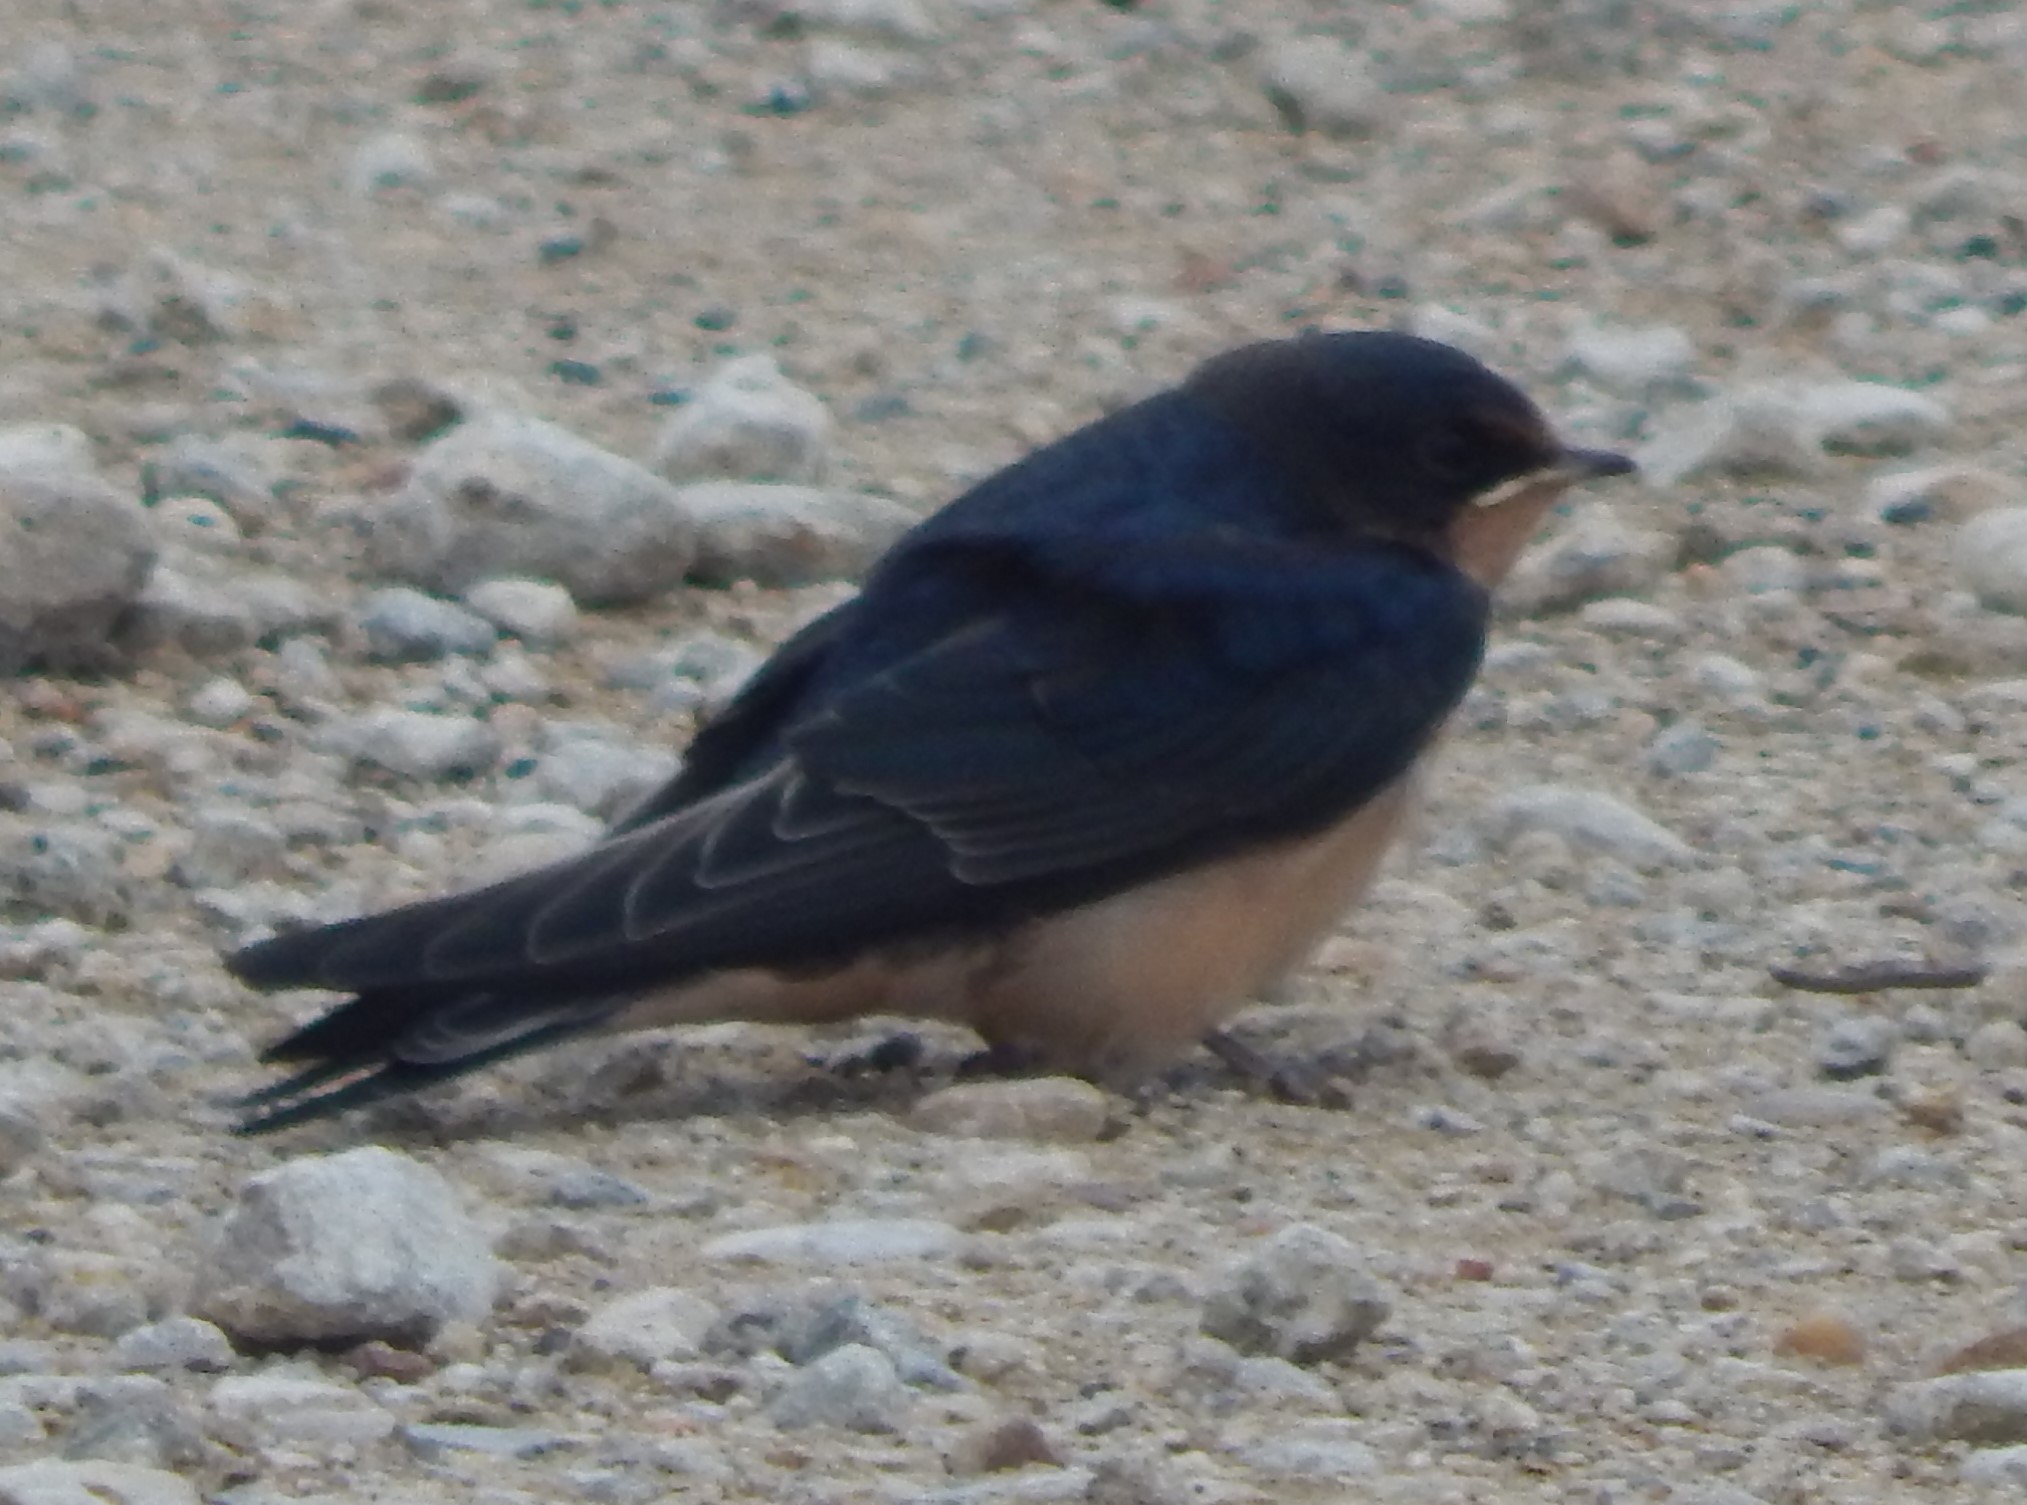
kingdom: Animalia
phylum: Chordata
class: Aves
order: Passeriformes
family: Hirundinidae
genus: Hirundo
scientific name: Hirundo rustica
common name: Barn swallow
